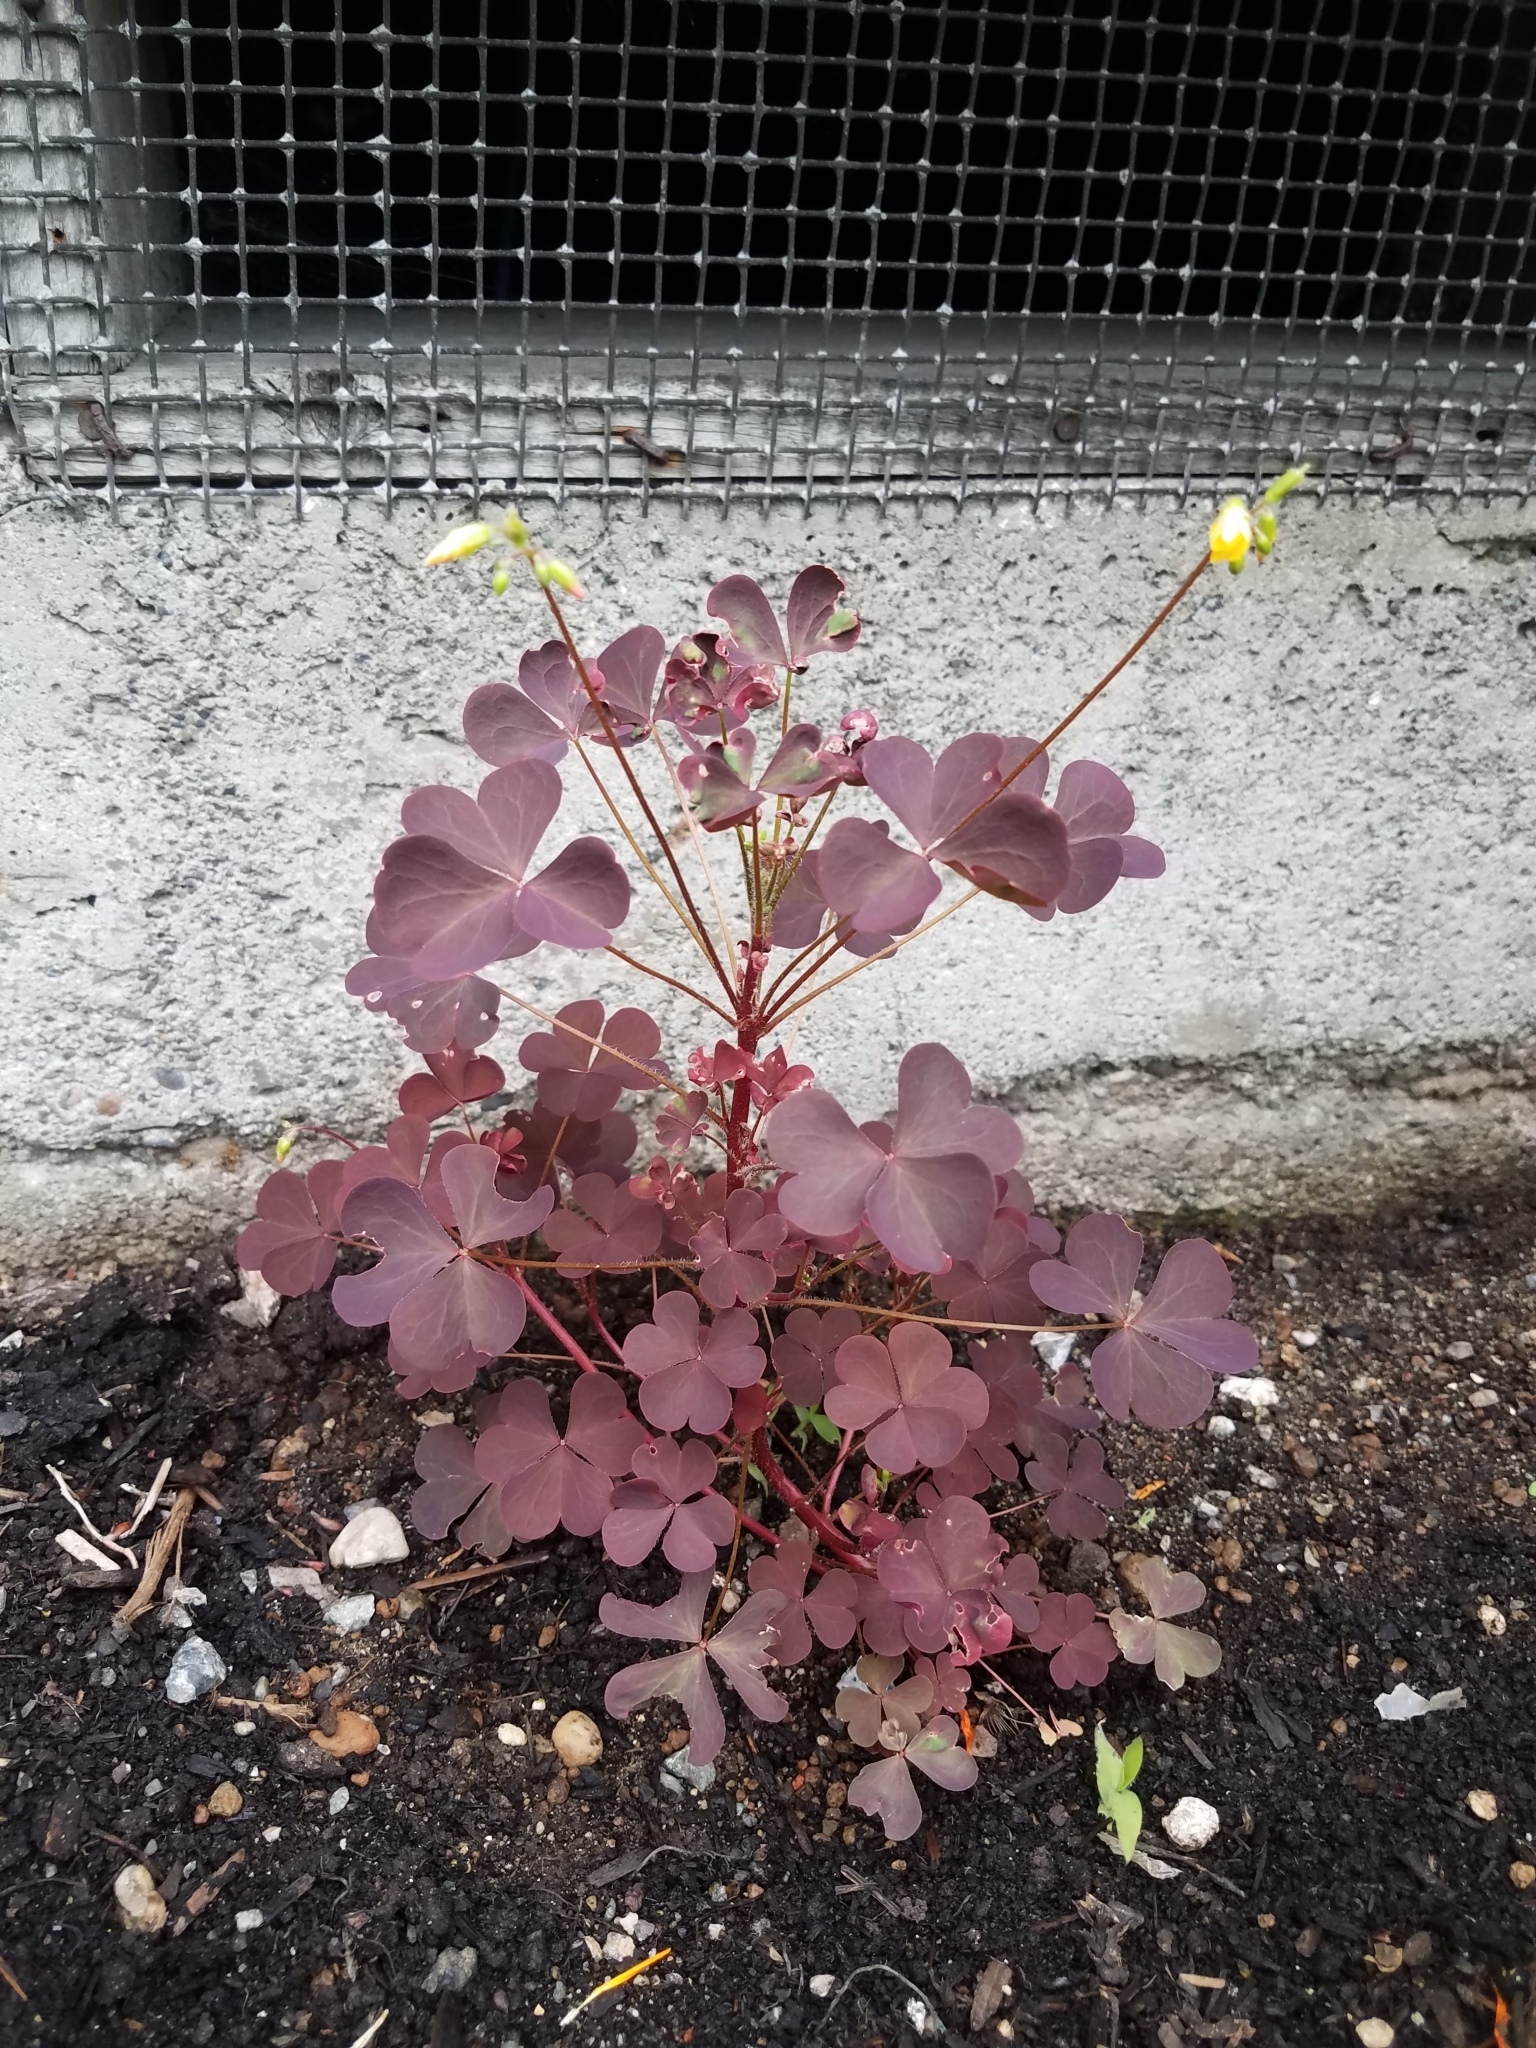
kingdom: Plantae
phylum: Tracheophyta
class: Magnoliopsida
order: Oxalidales
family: Oxalidaceae
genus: Oxalis
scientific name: Oxalis stricta
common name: Upright yellow-sorrel
